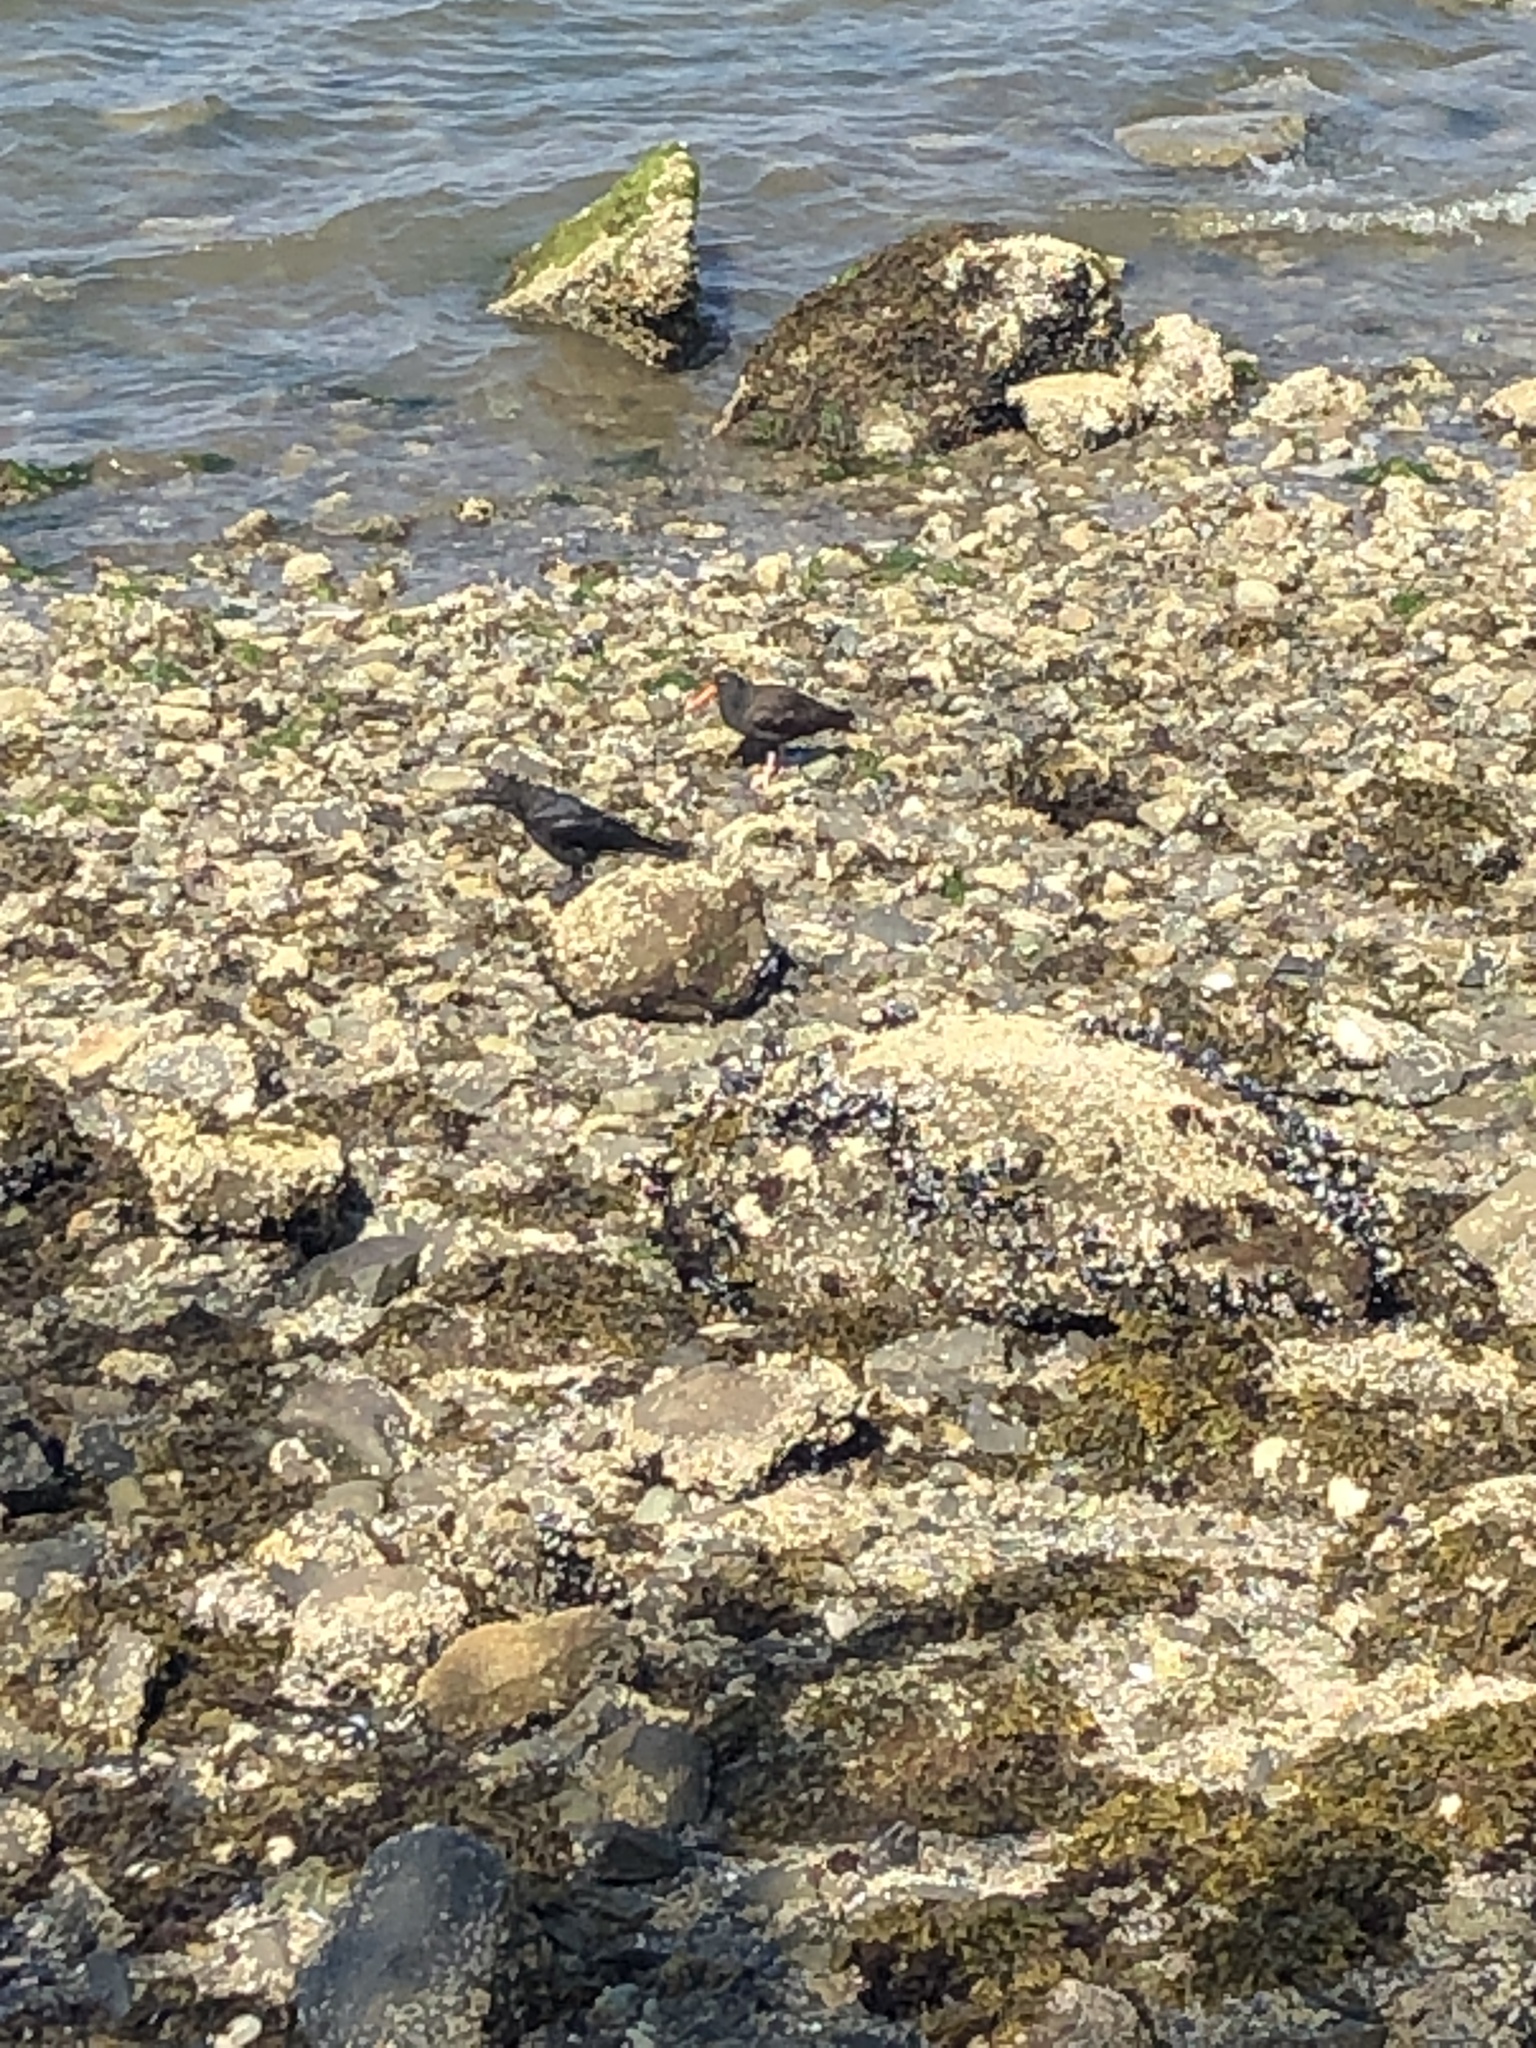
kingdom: Animalia
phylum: Chordata
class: Aves
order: Charadriiformes
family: Haematopodidae
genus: Haematopus
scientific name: Haematopus bachmani
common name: Black oystercatcher
